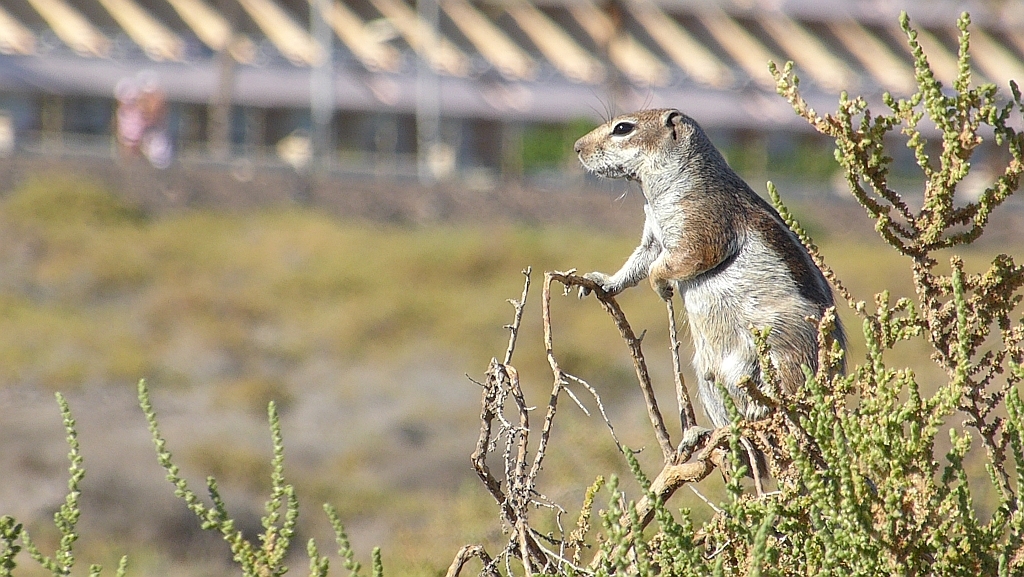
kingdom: Animalia
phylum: Chordata
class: Mammalia
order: Rodentia
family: Sciuridae
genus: Atlantoxerus
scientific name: Atlantoxerus getulus
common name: Barbary ground squirrel
